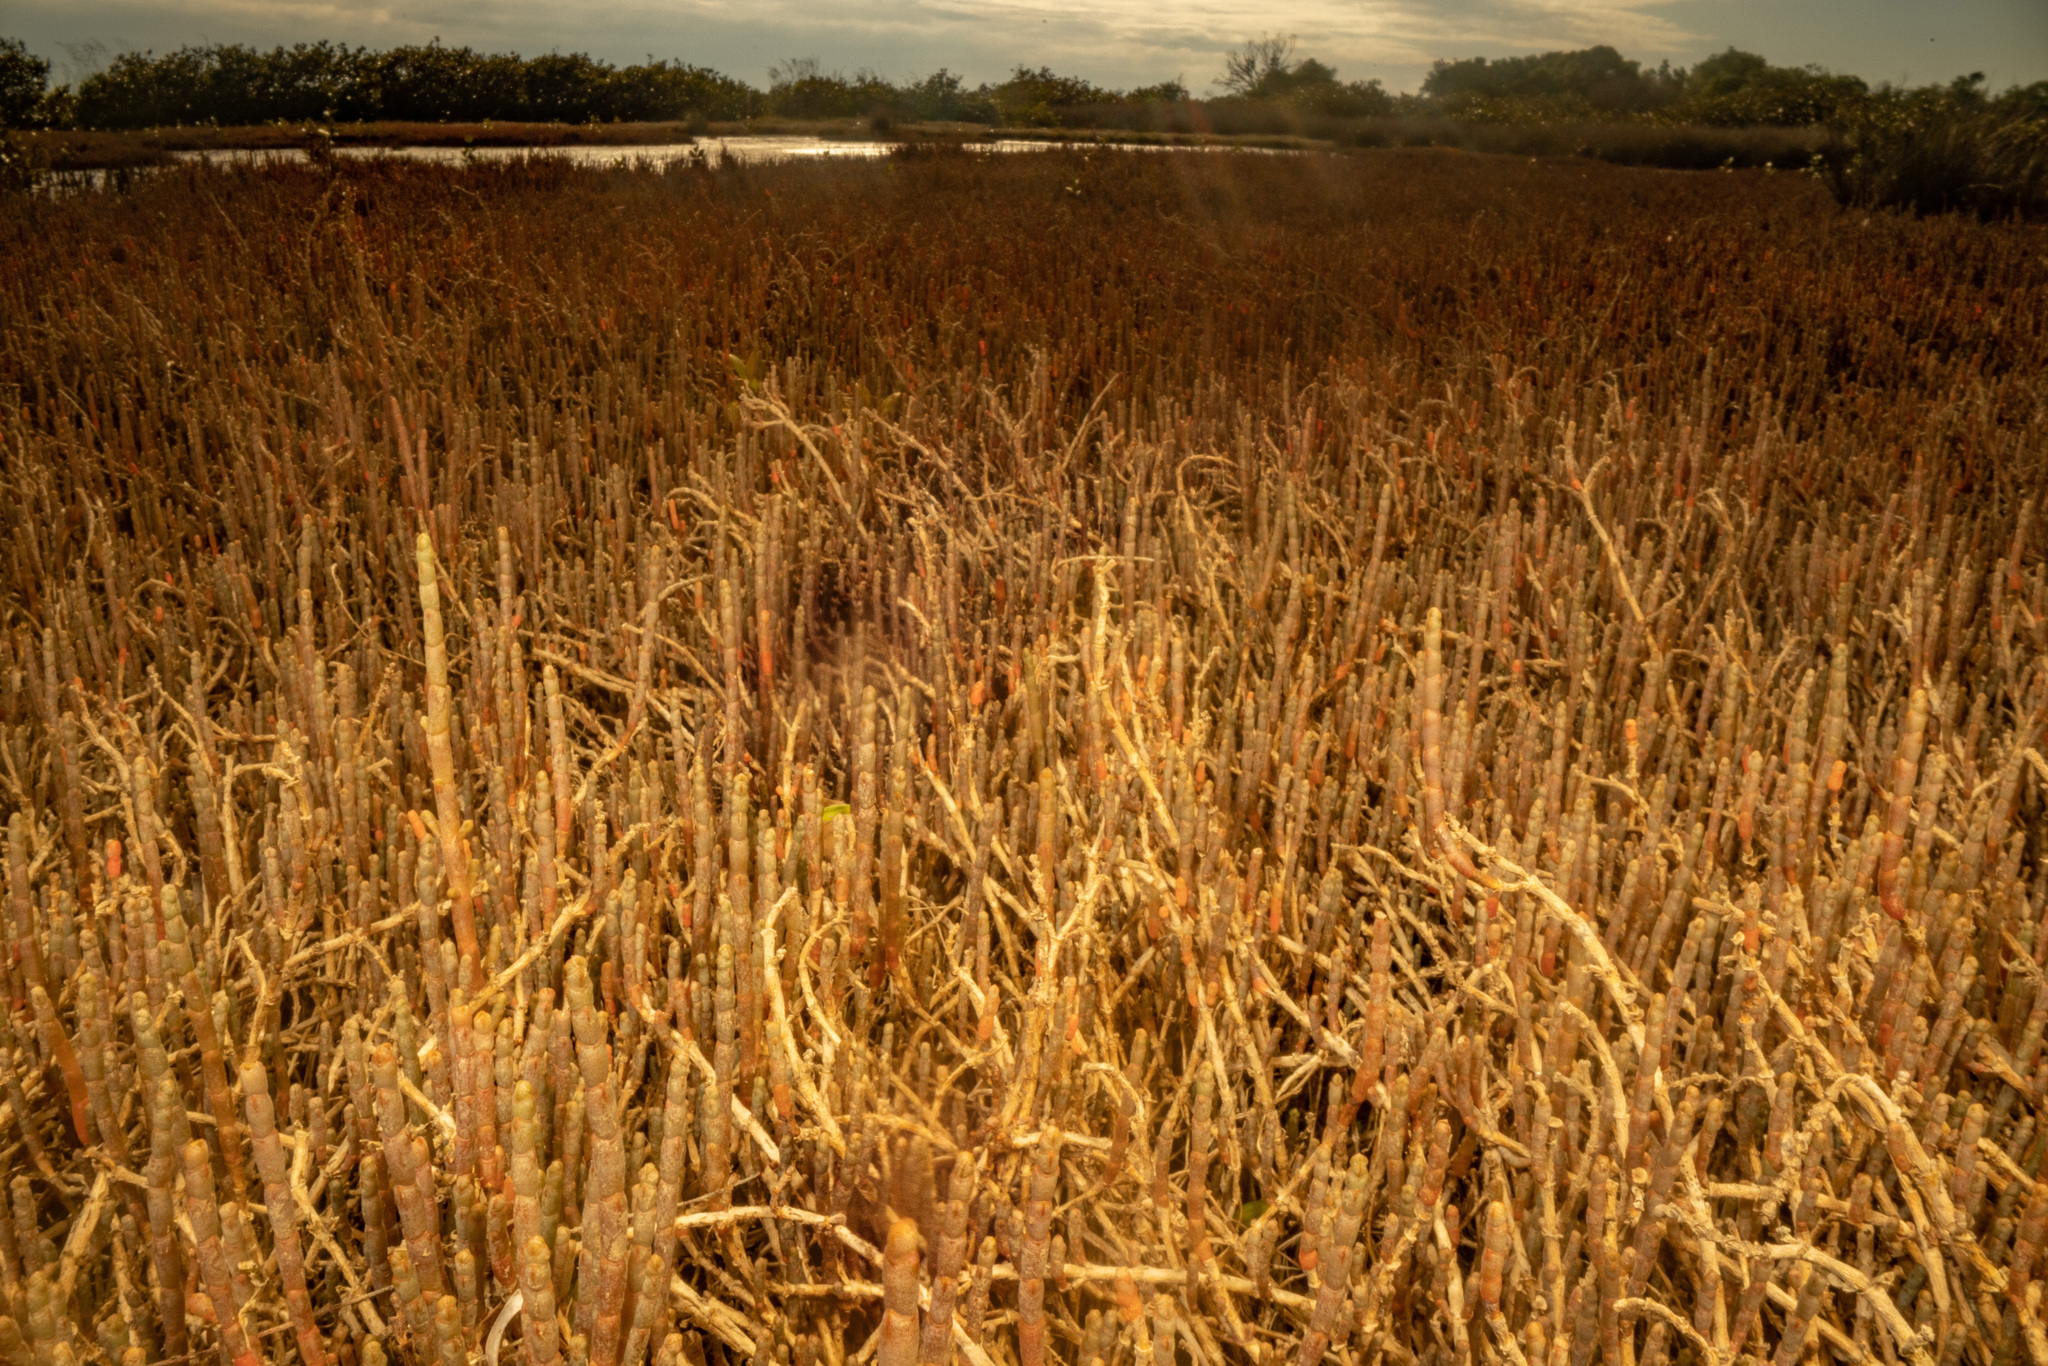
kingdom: Plantae
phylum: Tracheophyta
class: Magnoliopsida
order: Caryophyllales
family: Amaranthaceae
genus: Salicornia
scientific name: Salicornia quinqueflora
